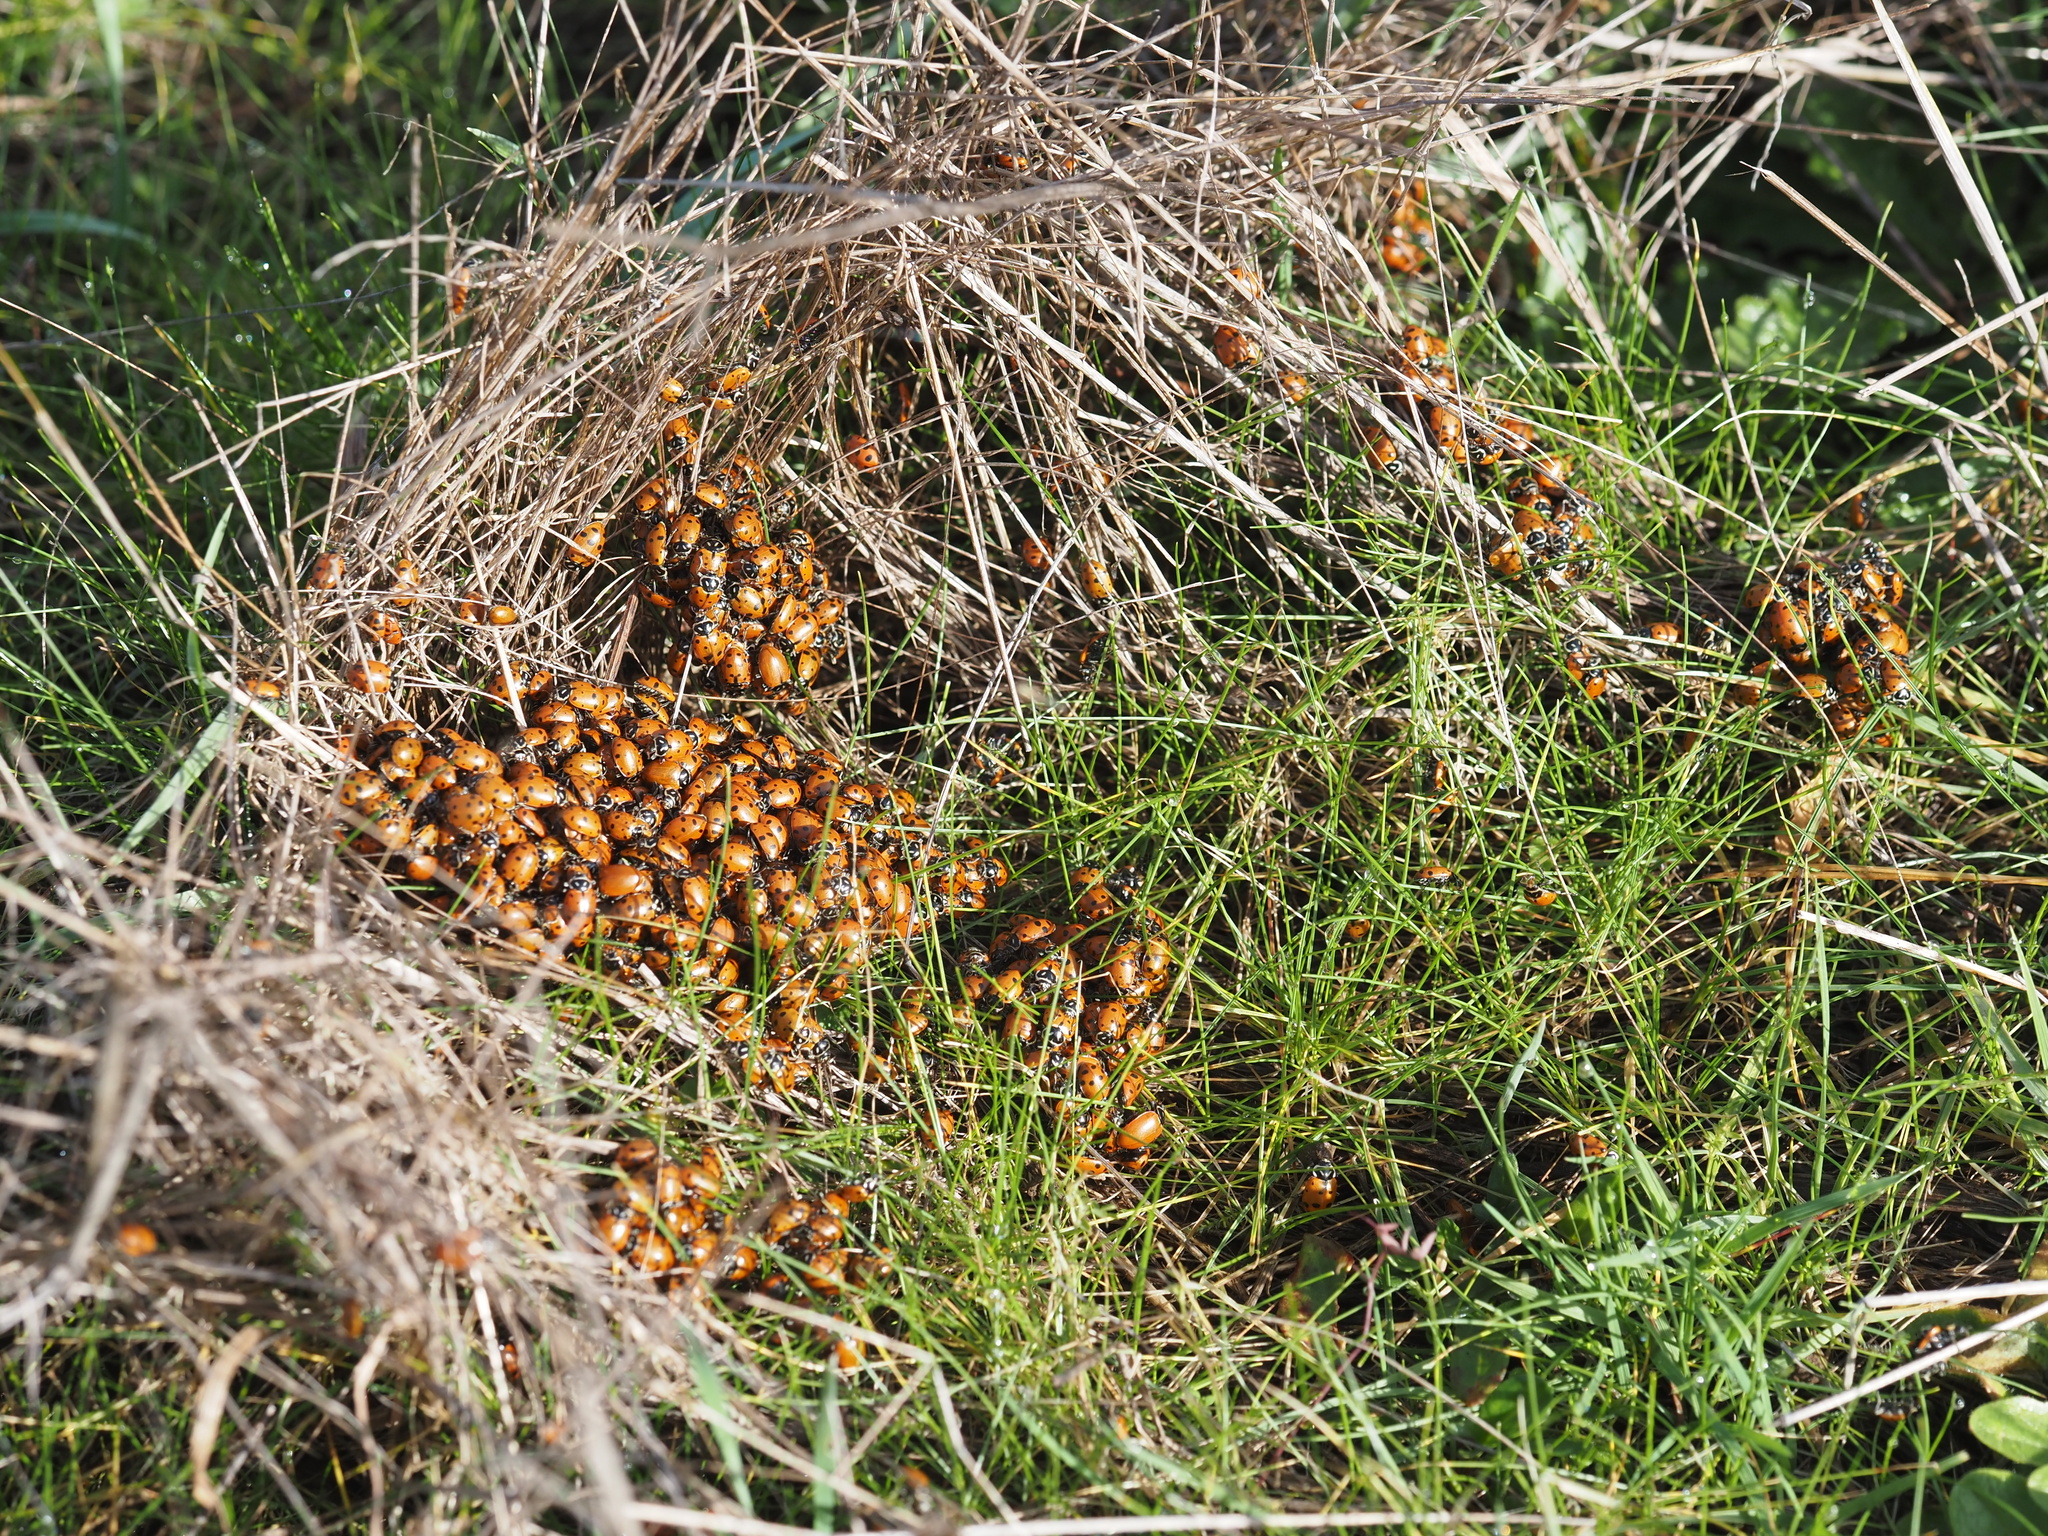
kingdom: Animalia
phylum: Arthropoda
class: Insecta
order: Coleoptera
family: Coccinellidae
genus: Hippodamia
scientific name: Hippodamia convergens
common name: Convergent lady beetle
